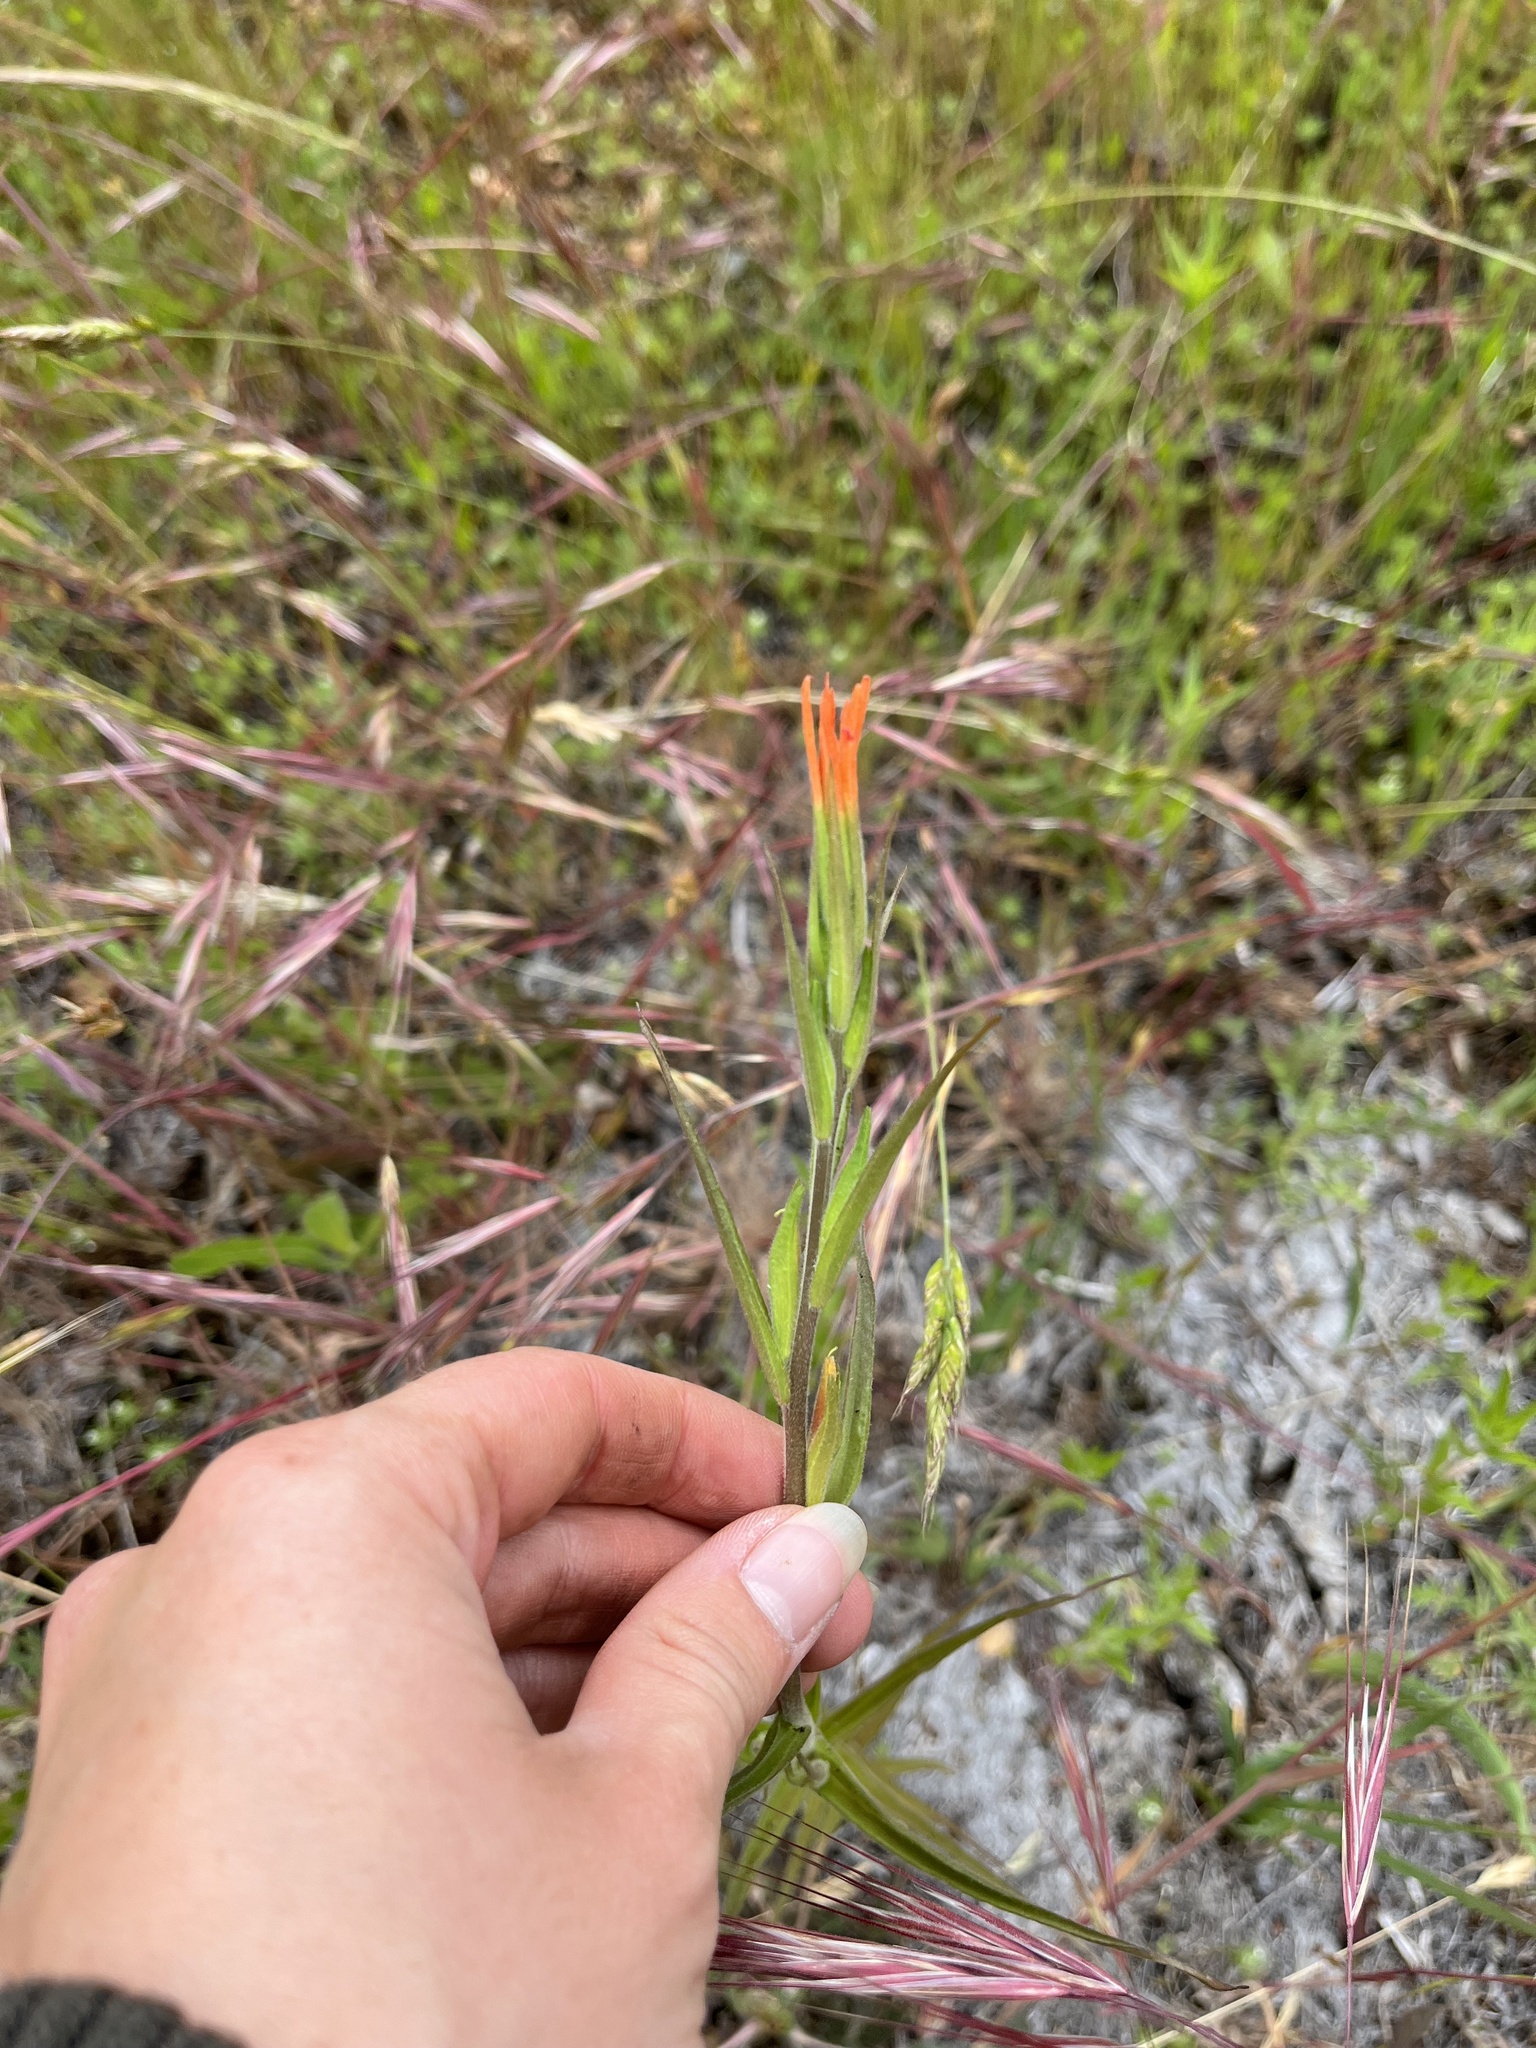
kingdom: Plantae
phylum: Tracheophyta
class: Magnoliopsida
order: Lamiales
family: Orobanchaceae
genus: Castilleja
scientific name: Castilleja minor
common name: Seep paintbrush
